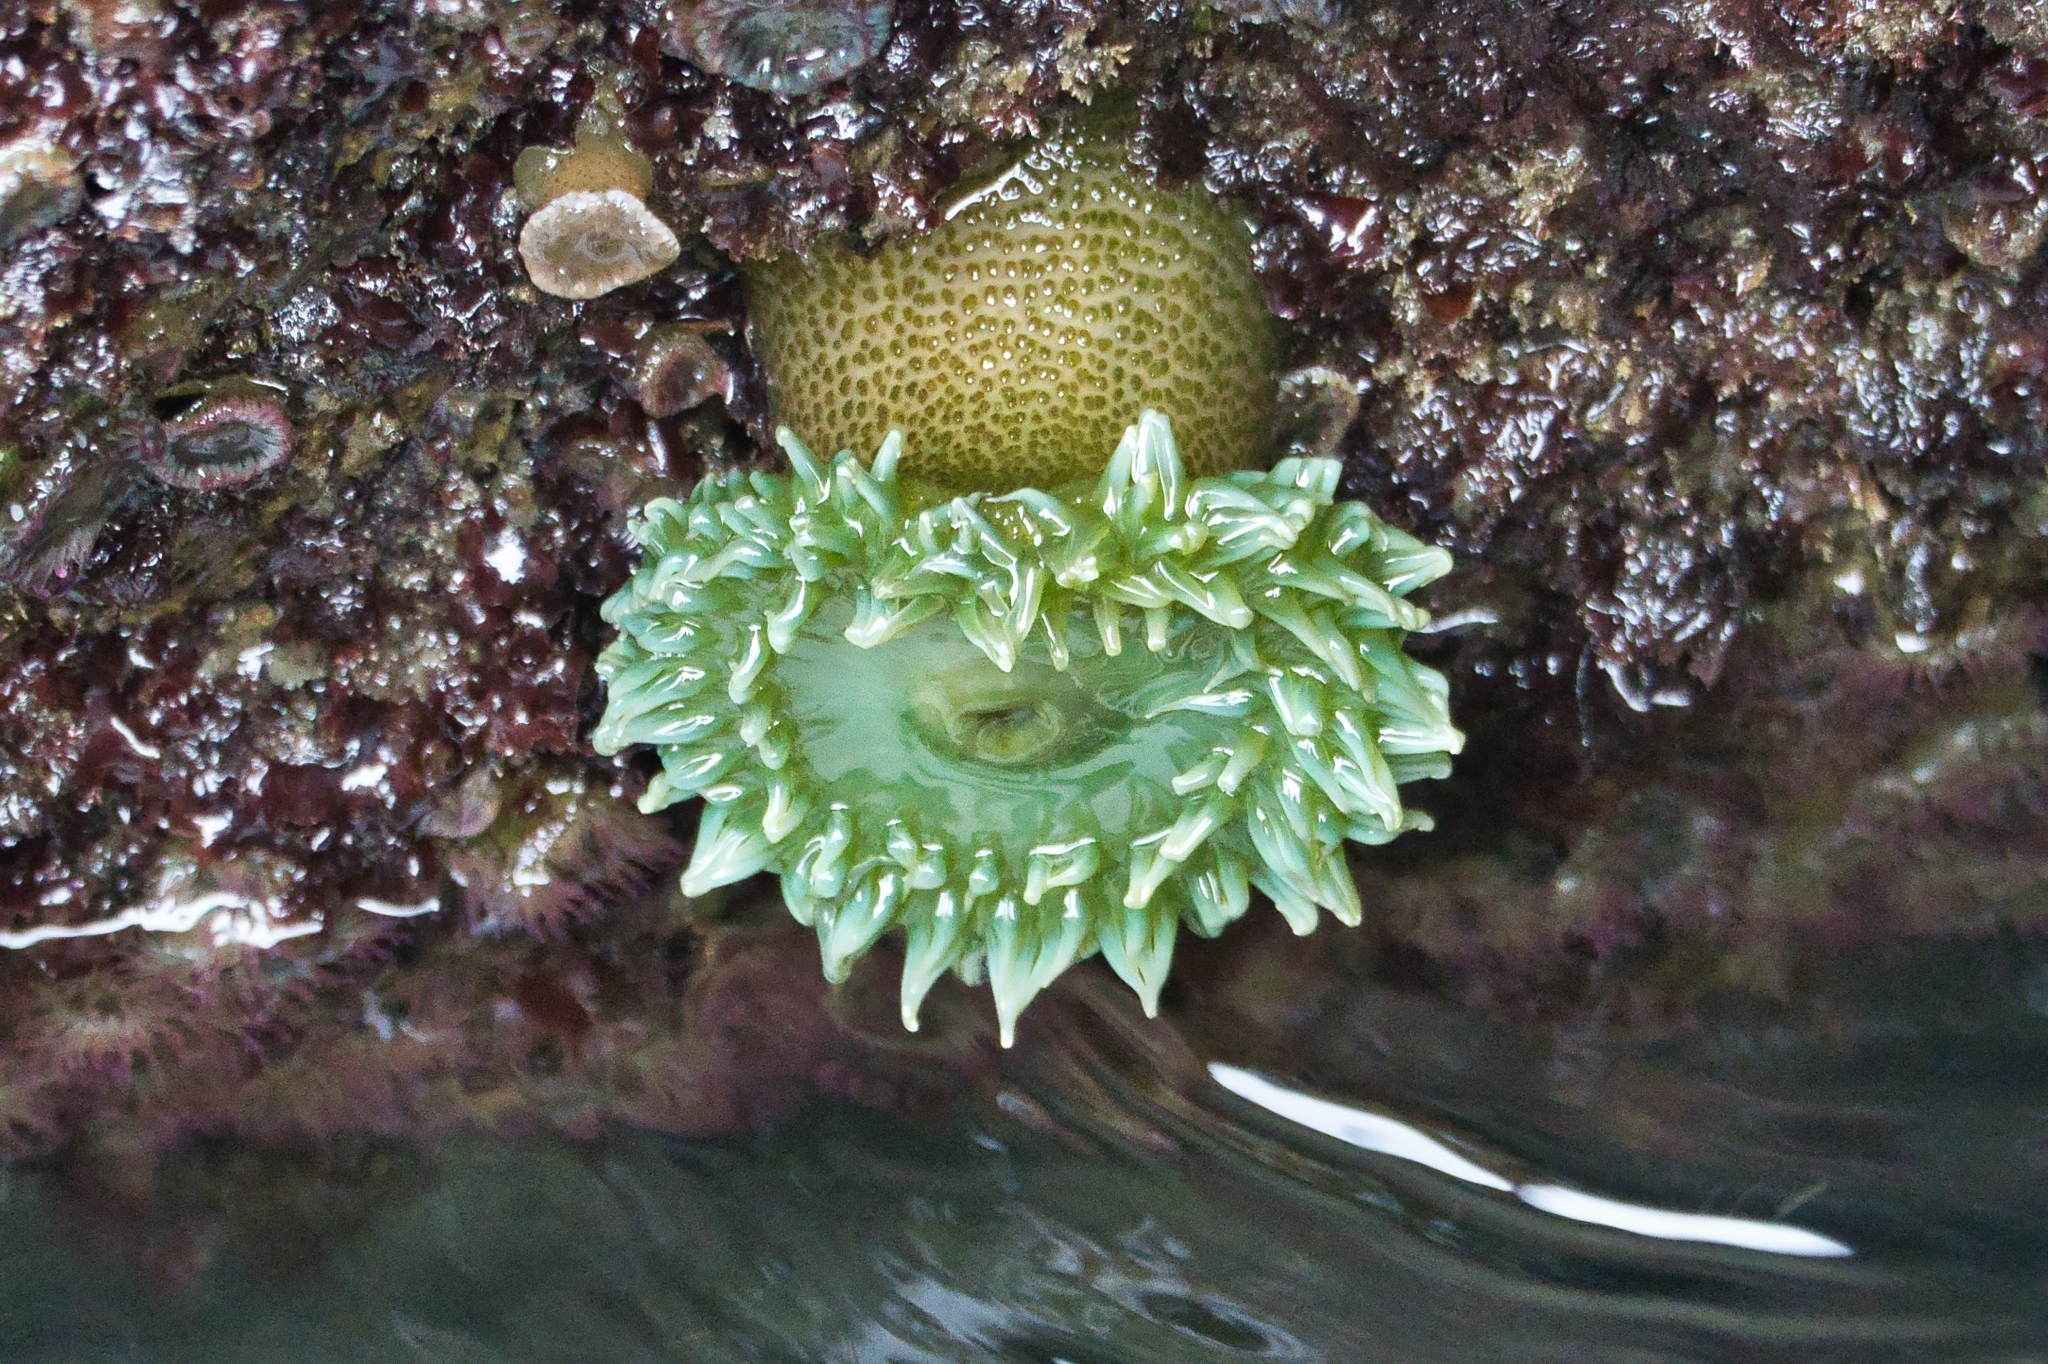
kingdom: Animalia
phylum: Cnidaria
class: Anthozoa
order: Actiniaria
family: Actiniidae
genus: Anthopleura
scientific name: Anthopleura xanthogrammica
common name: Giant green anemone
